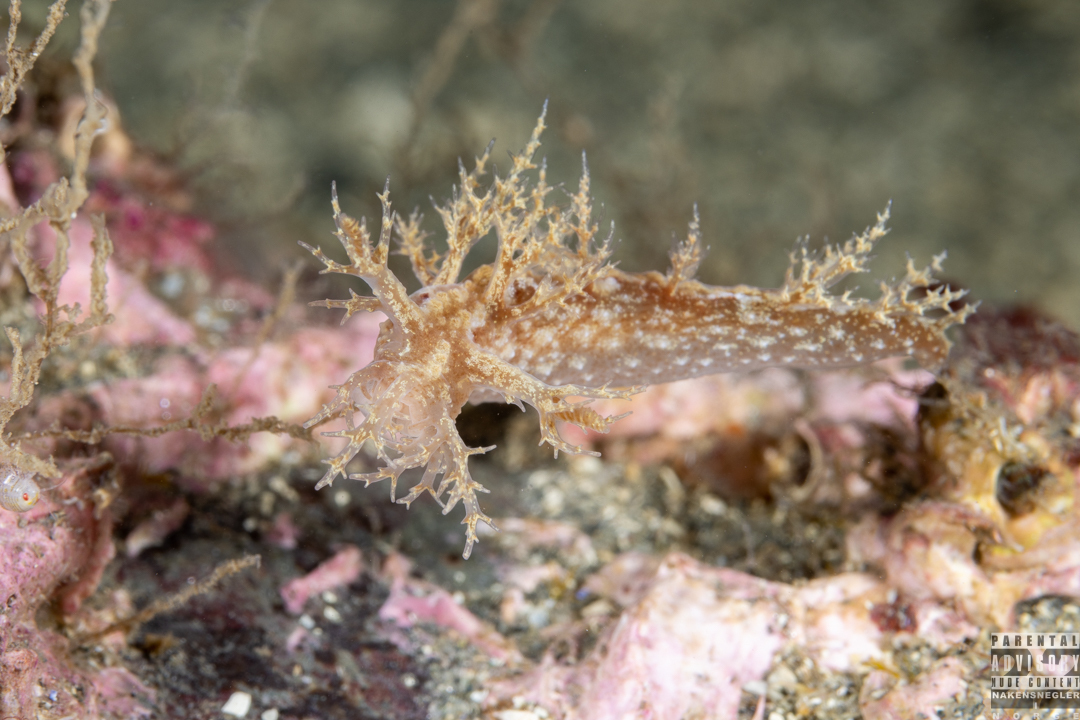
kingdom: Animalia
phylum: Mollusca
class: Gastropoda
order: Nudibranchia
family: Dendronotidae
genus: Dendronotus
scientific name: Dendronotus frondosus
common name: Bushy-backed nudibranch
